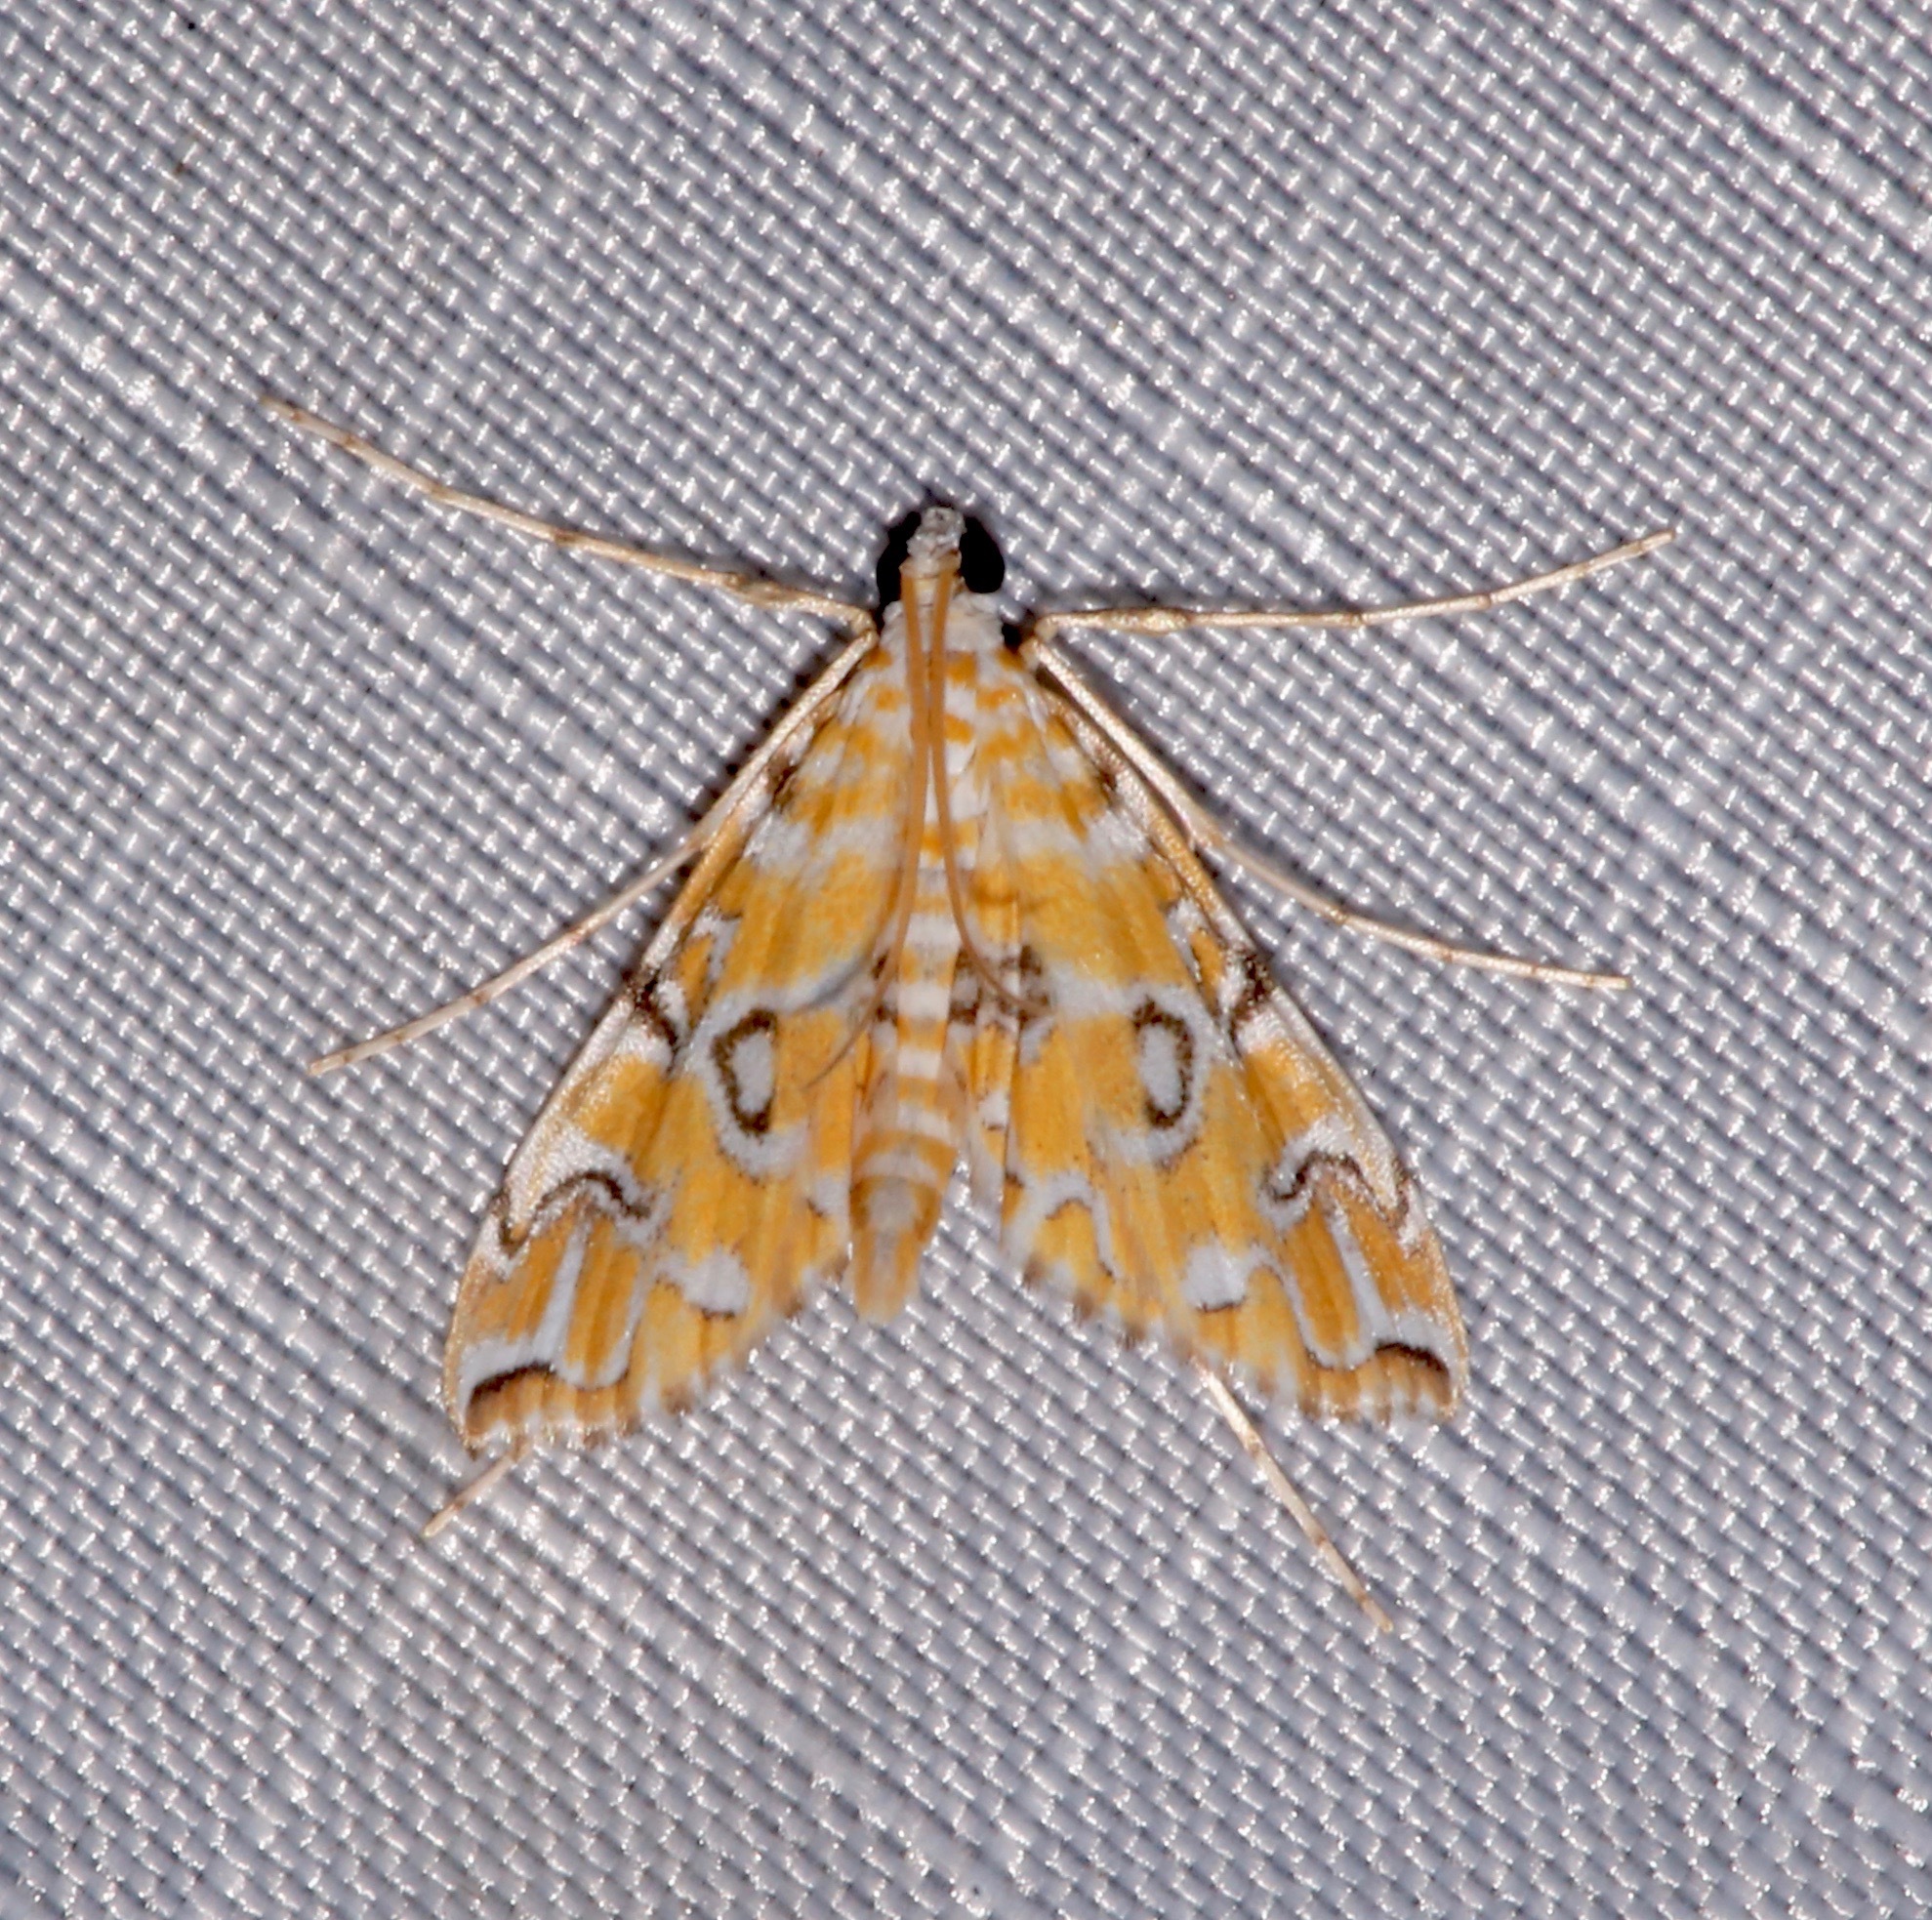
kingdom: Animalia
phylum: Arthropoda
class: Insecta
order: Lepidoptera
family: Crambidae
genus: Elophila
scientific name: Elophila icciusalis
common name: Pondside pyralid moth
